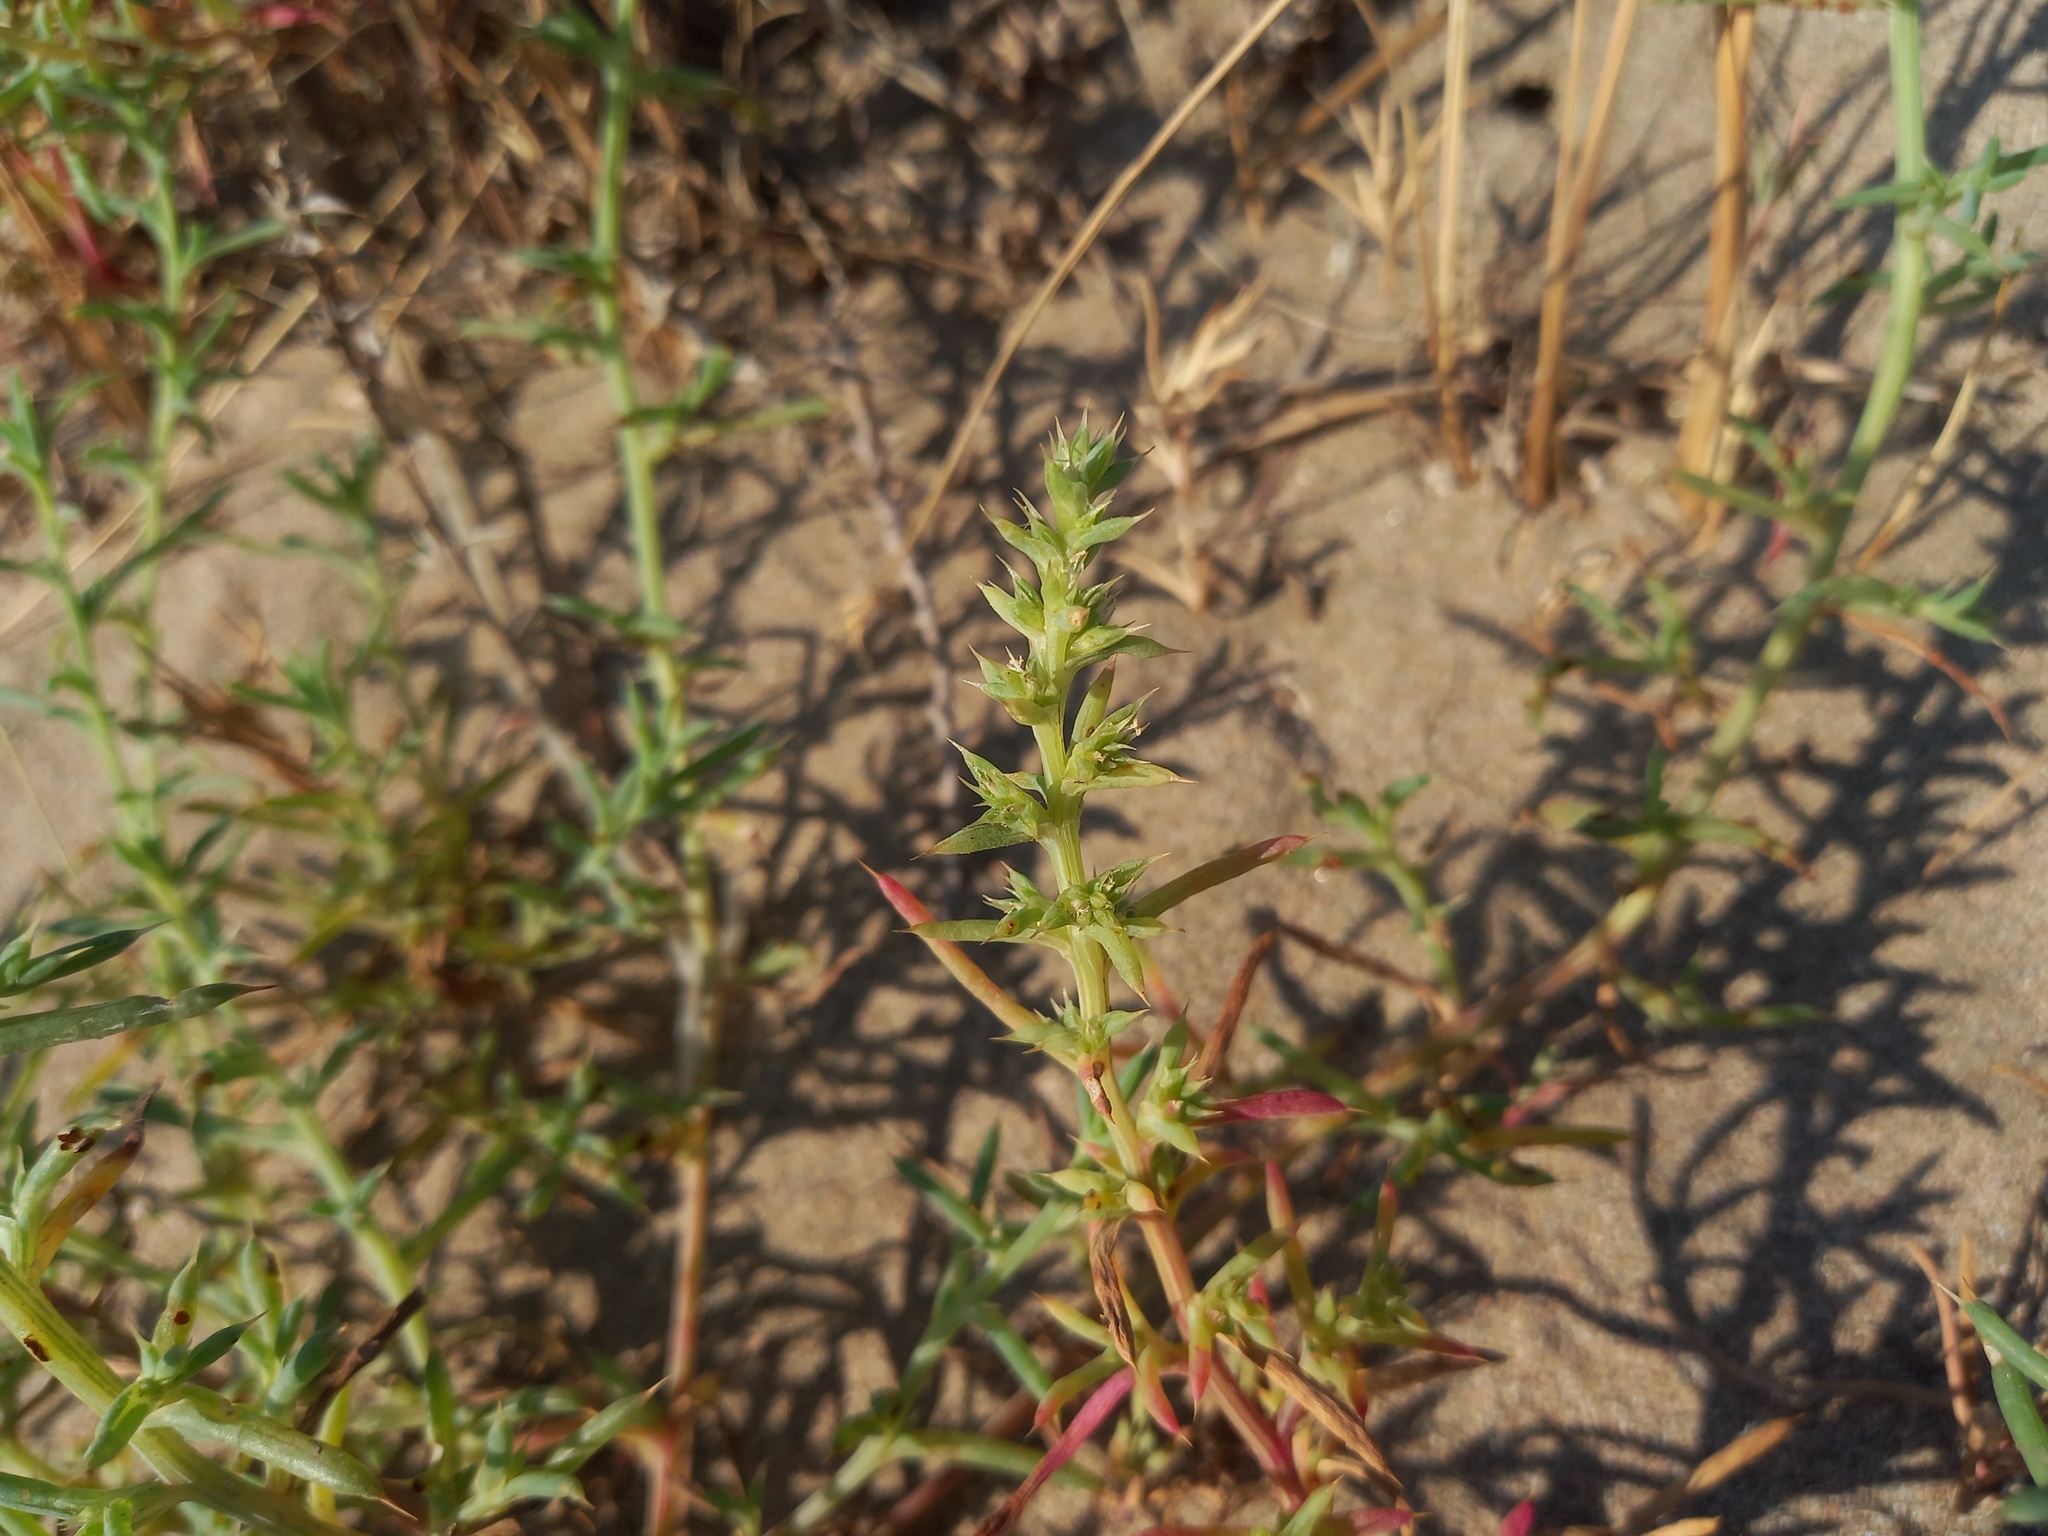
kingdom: Plantae
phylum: Tracheophyta
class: Magnoliopsida
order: Caryophyllales
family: Amaranthaceae
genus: Salsola
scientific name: Salsola kali
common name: Saltwort
